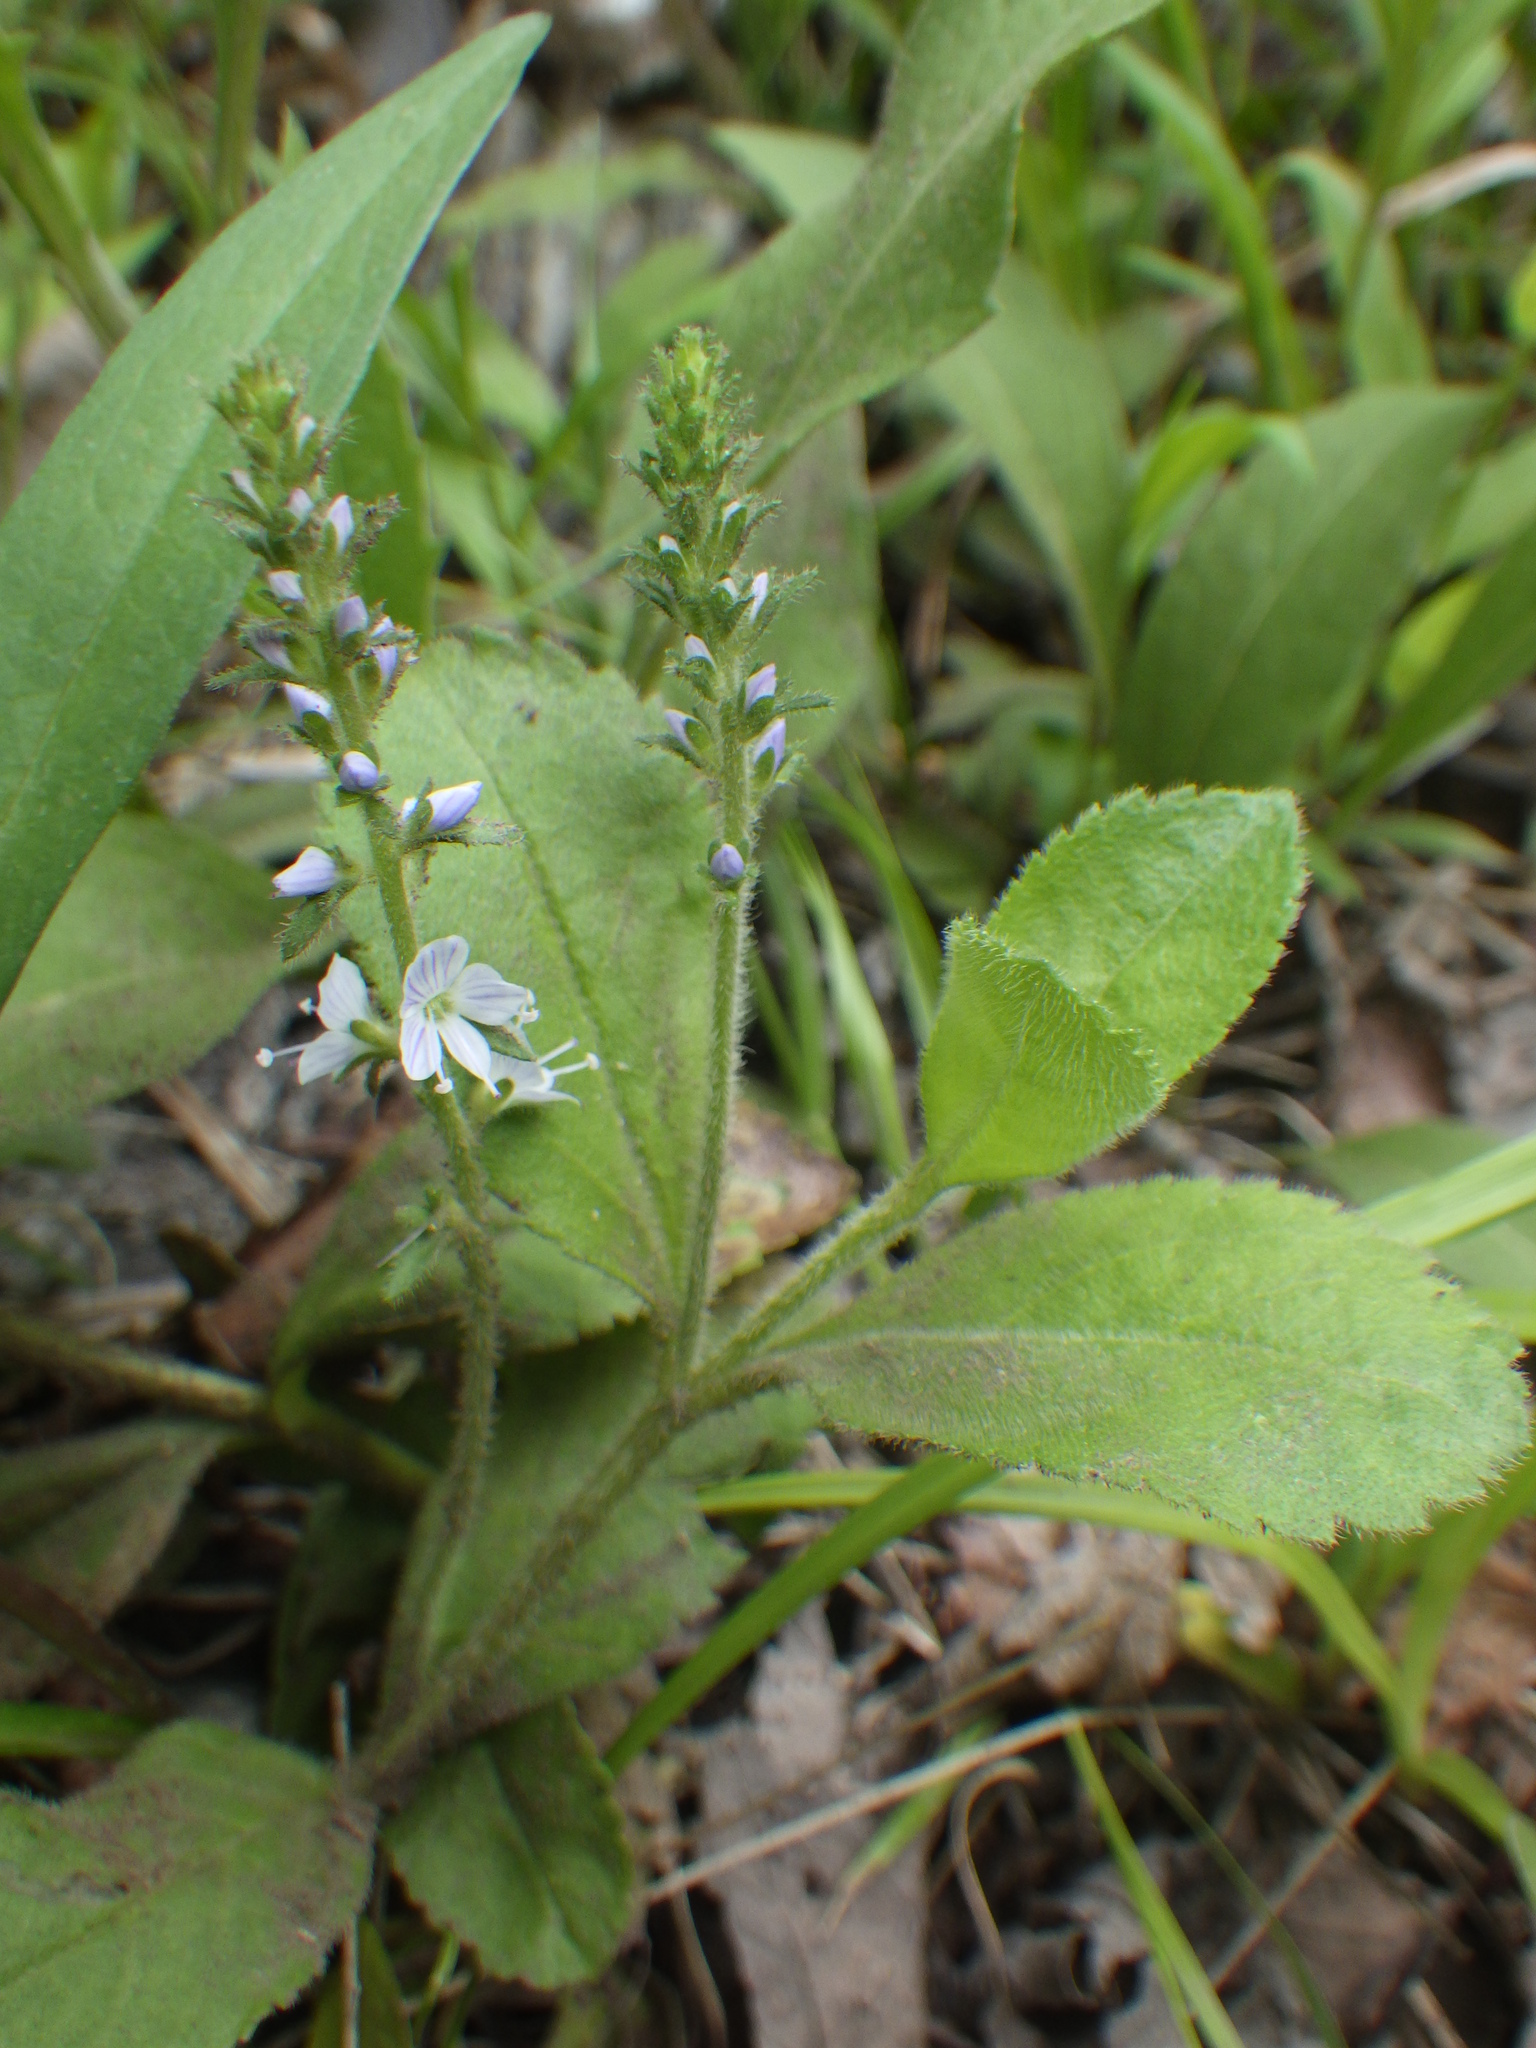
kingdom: Plantae
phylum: Tracheophyta
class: Magnoliopsida
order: Lamiales
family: Plantaginaceae
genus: Veronica
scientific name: Veronica officinalis
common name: Common speedwell
